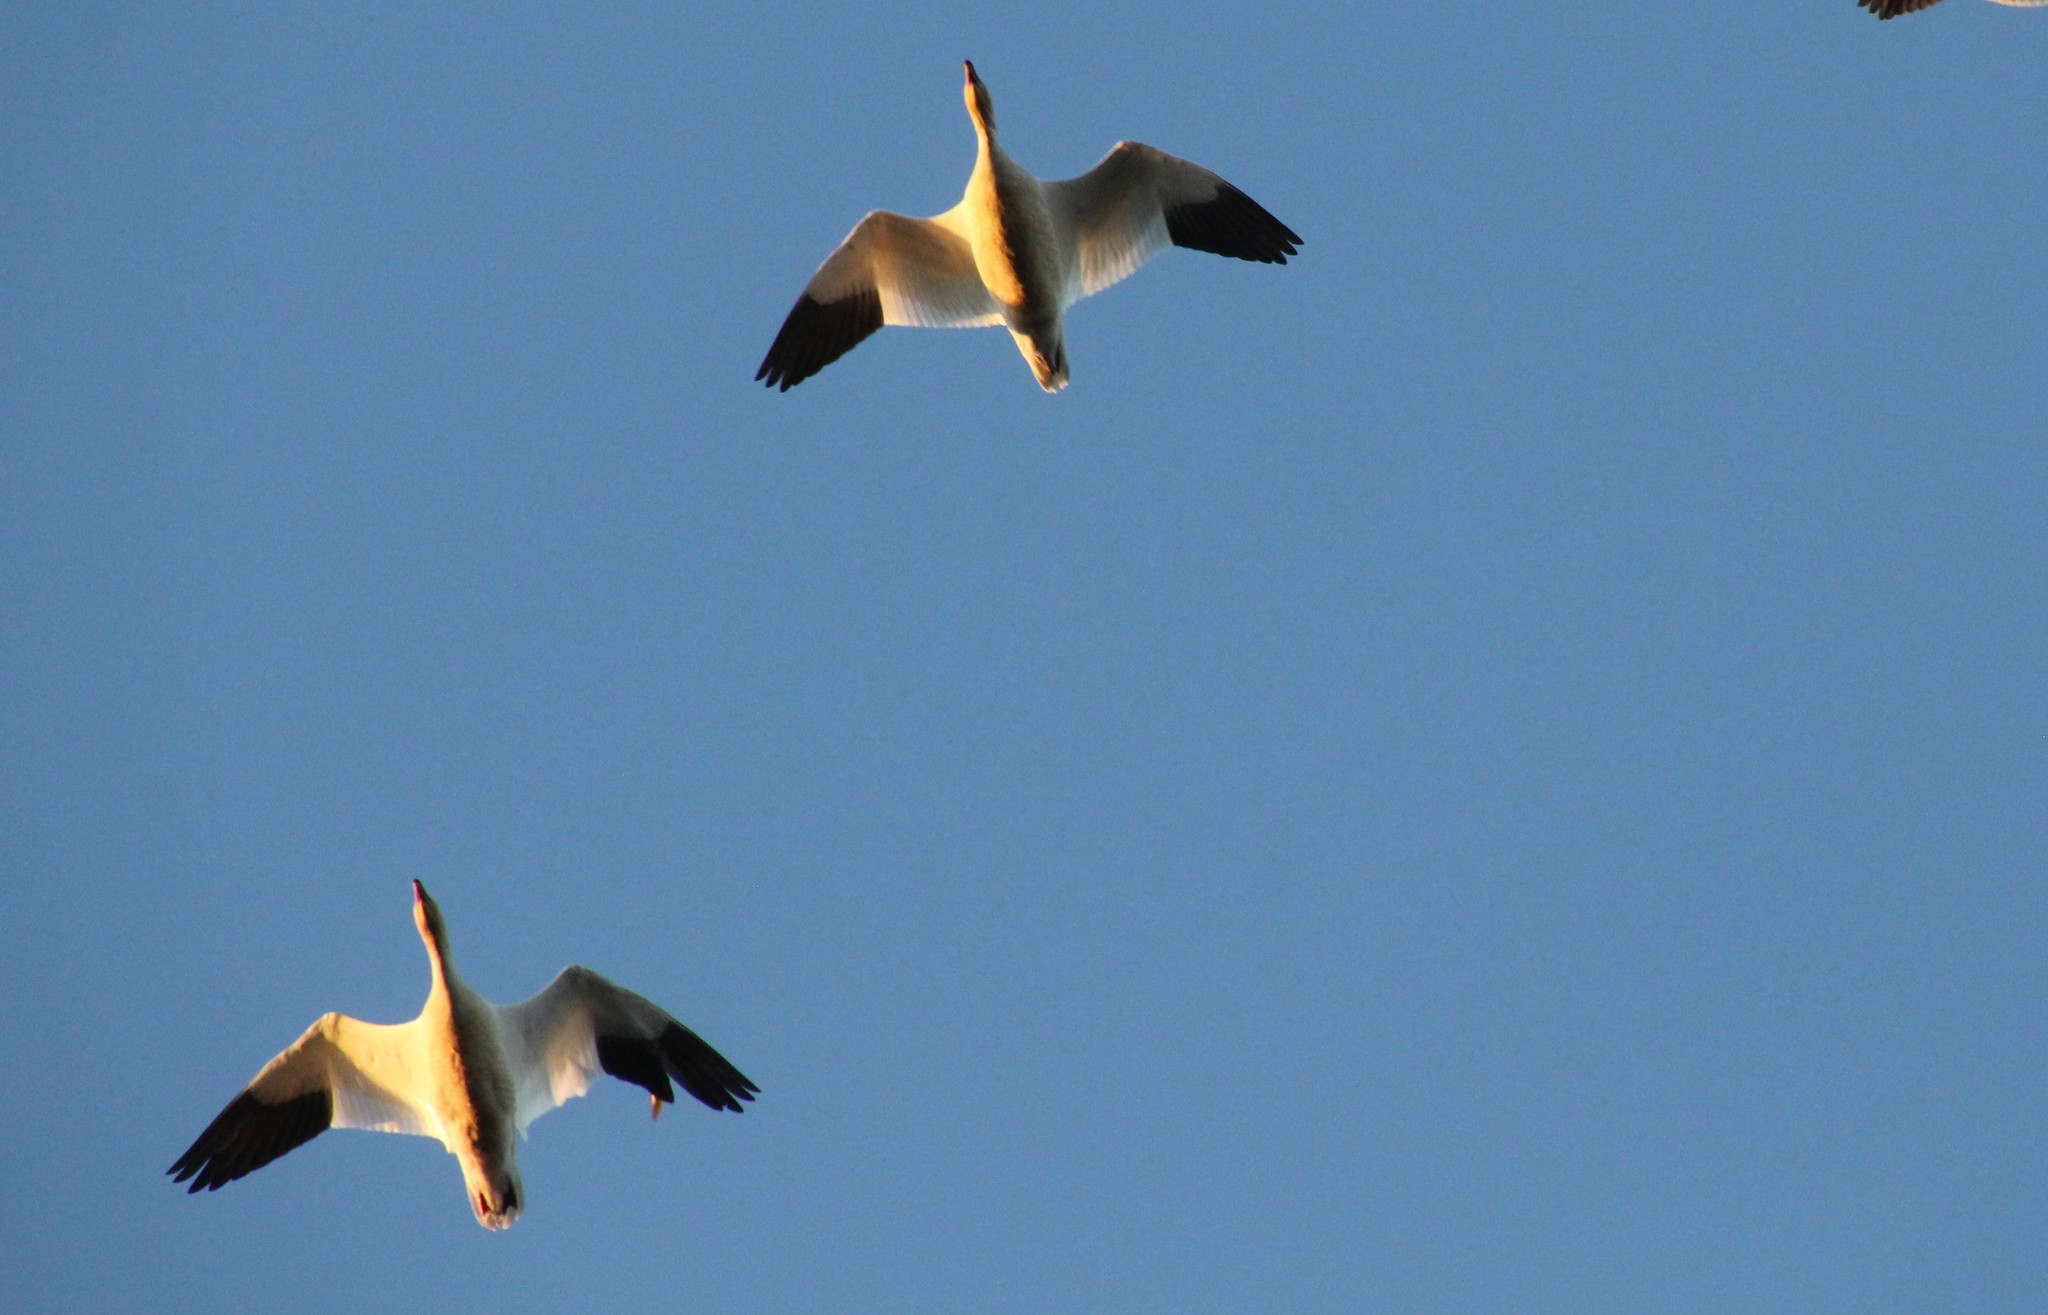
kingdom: Animalia
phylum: Chordata
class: Aves
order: Anseriformes
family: Anatidae
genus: Anser
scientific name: Anser caerulescens
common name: Snow goose
